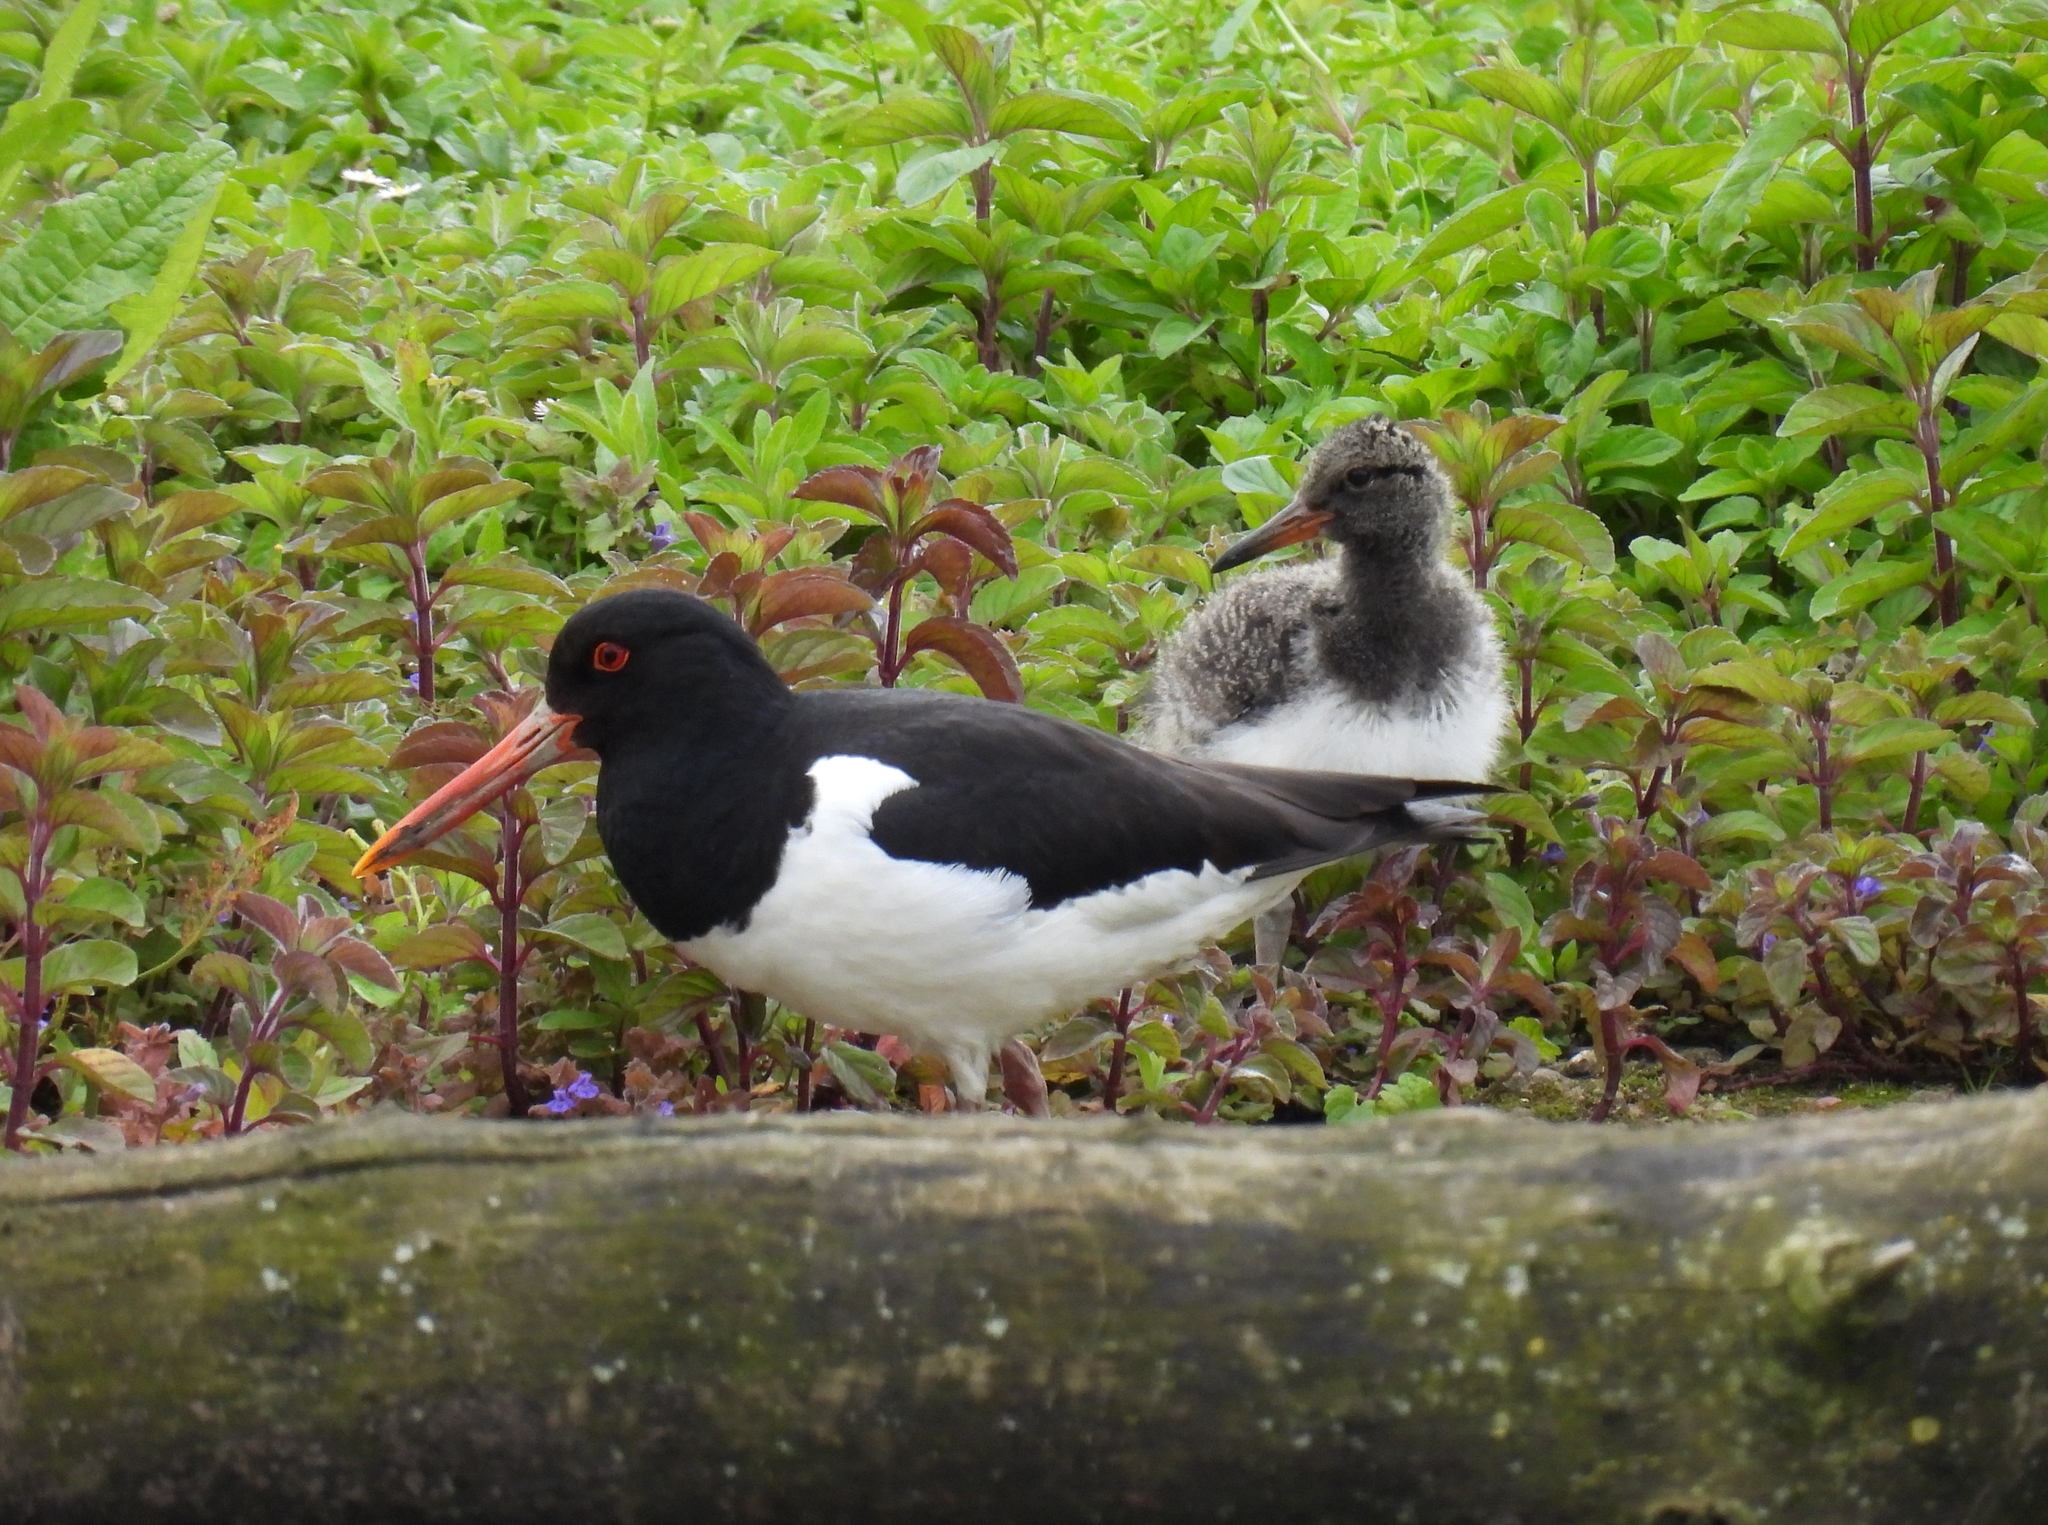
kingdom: Animalia
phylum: Chordata
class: Aves
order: Charadriiformes
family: Haematopodidae
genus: Haematopus
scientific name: Haematopus ostralegus
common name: Eurasian oystercatcher
